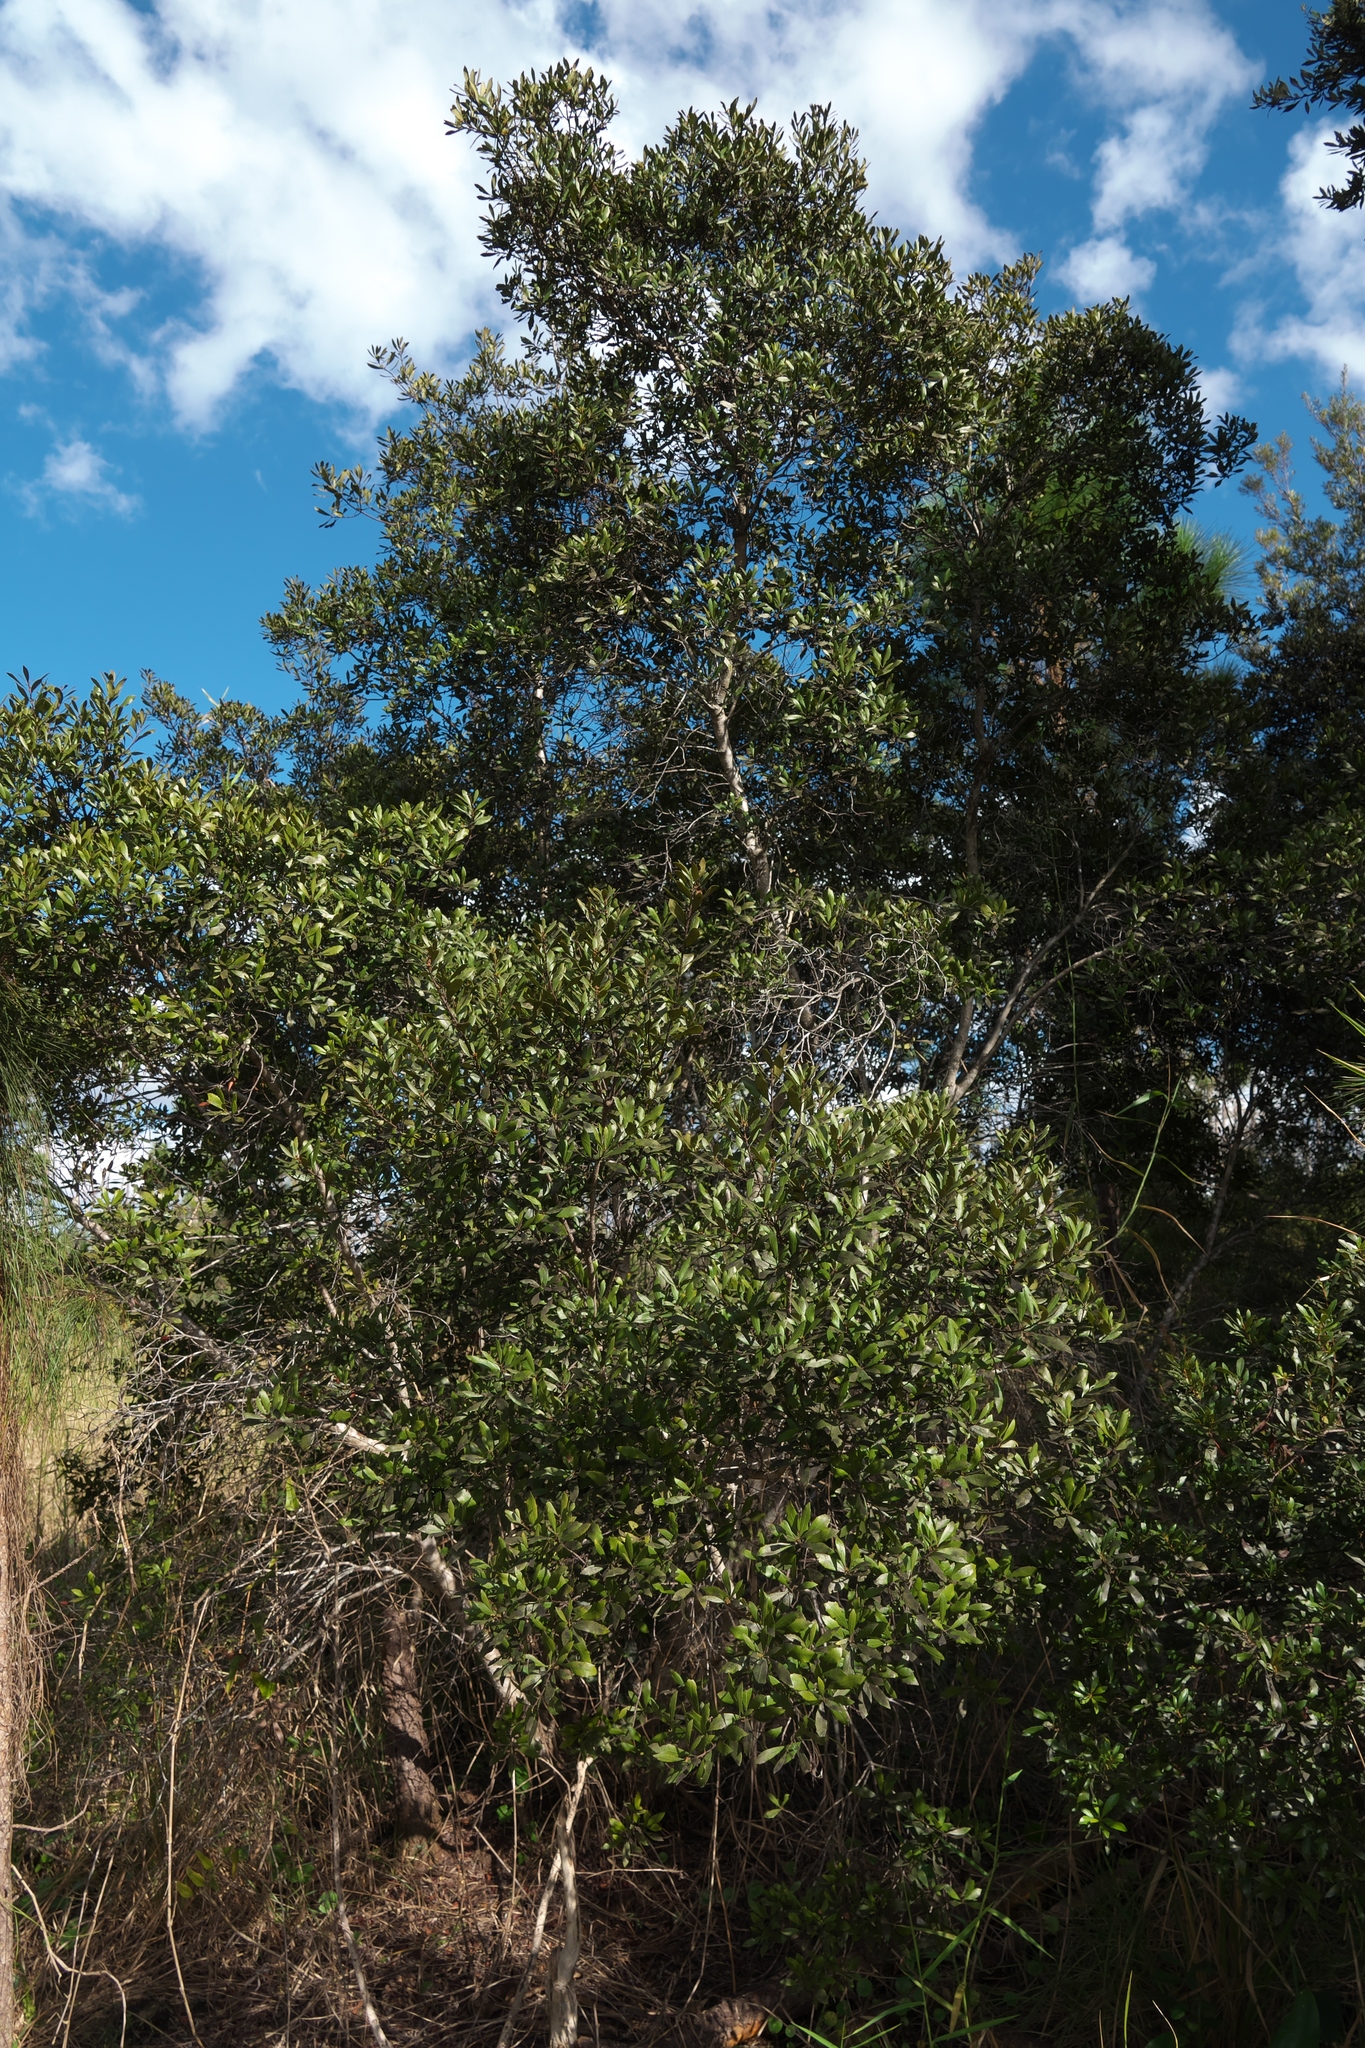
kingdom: Plantae
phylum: Tracheophyta
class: Magnoliopsida
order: Fagales
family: Myricaceae
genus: Morella
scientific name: Morella cerifera
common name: Wax myrtle
